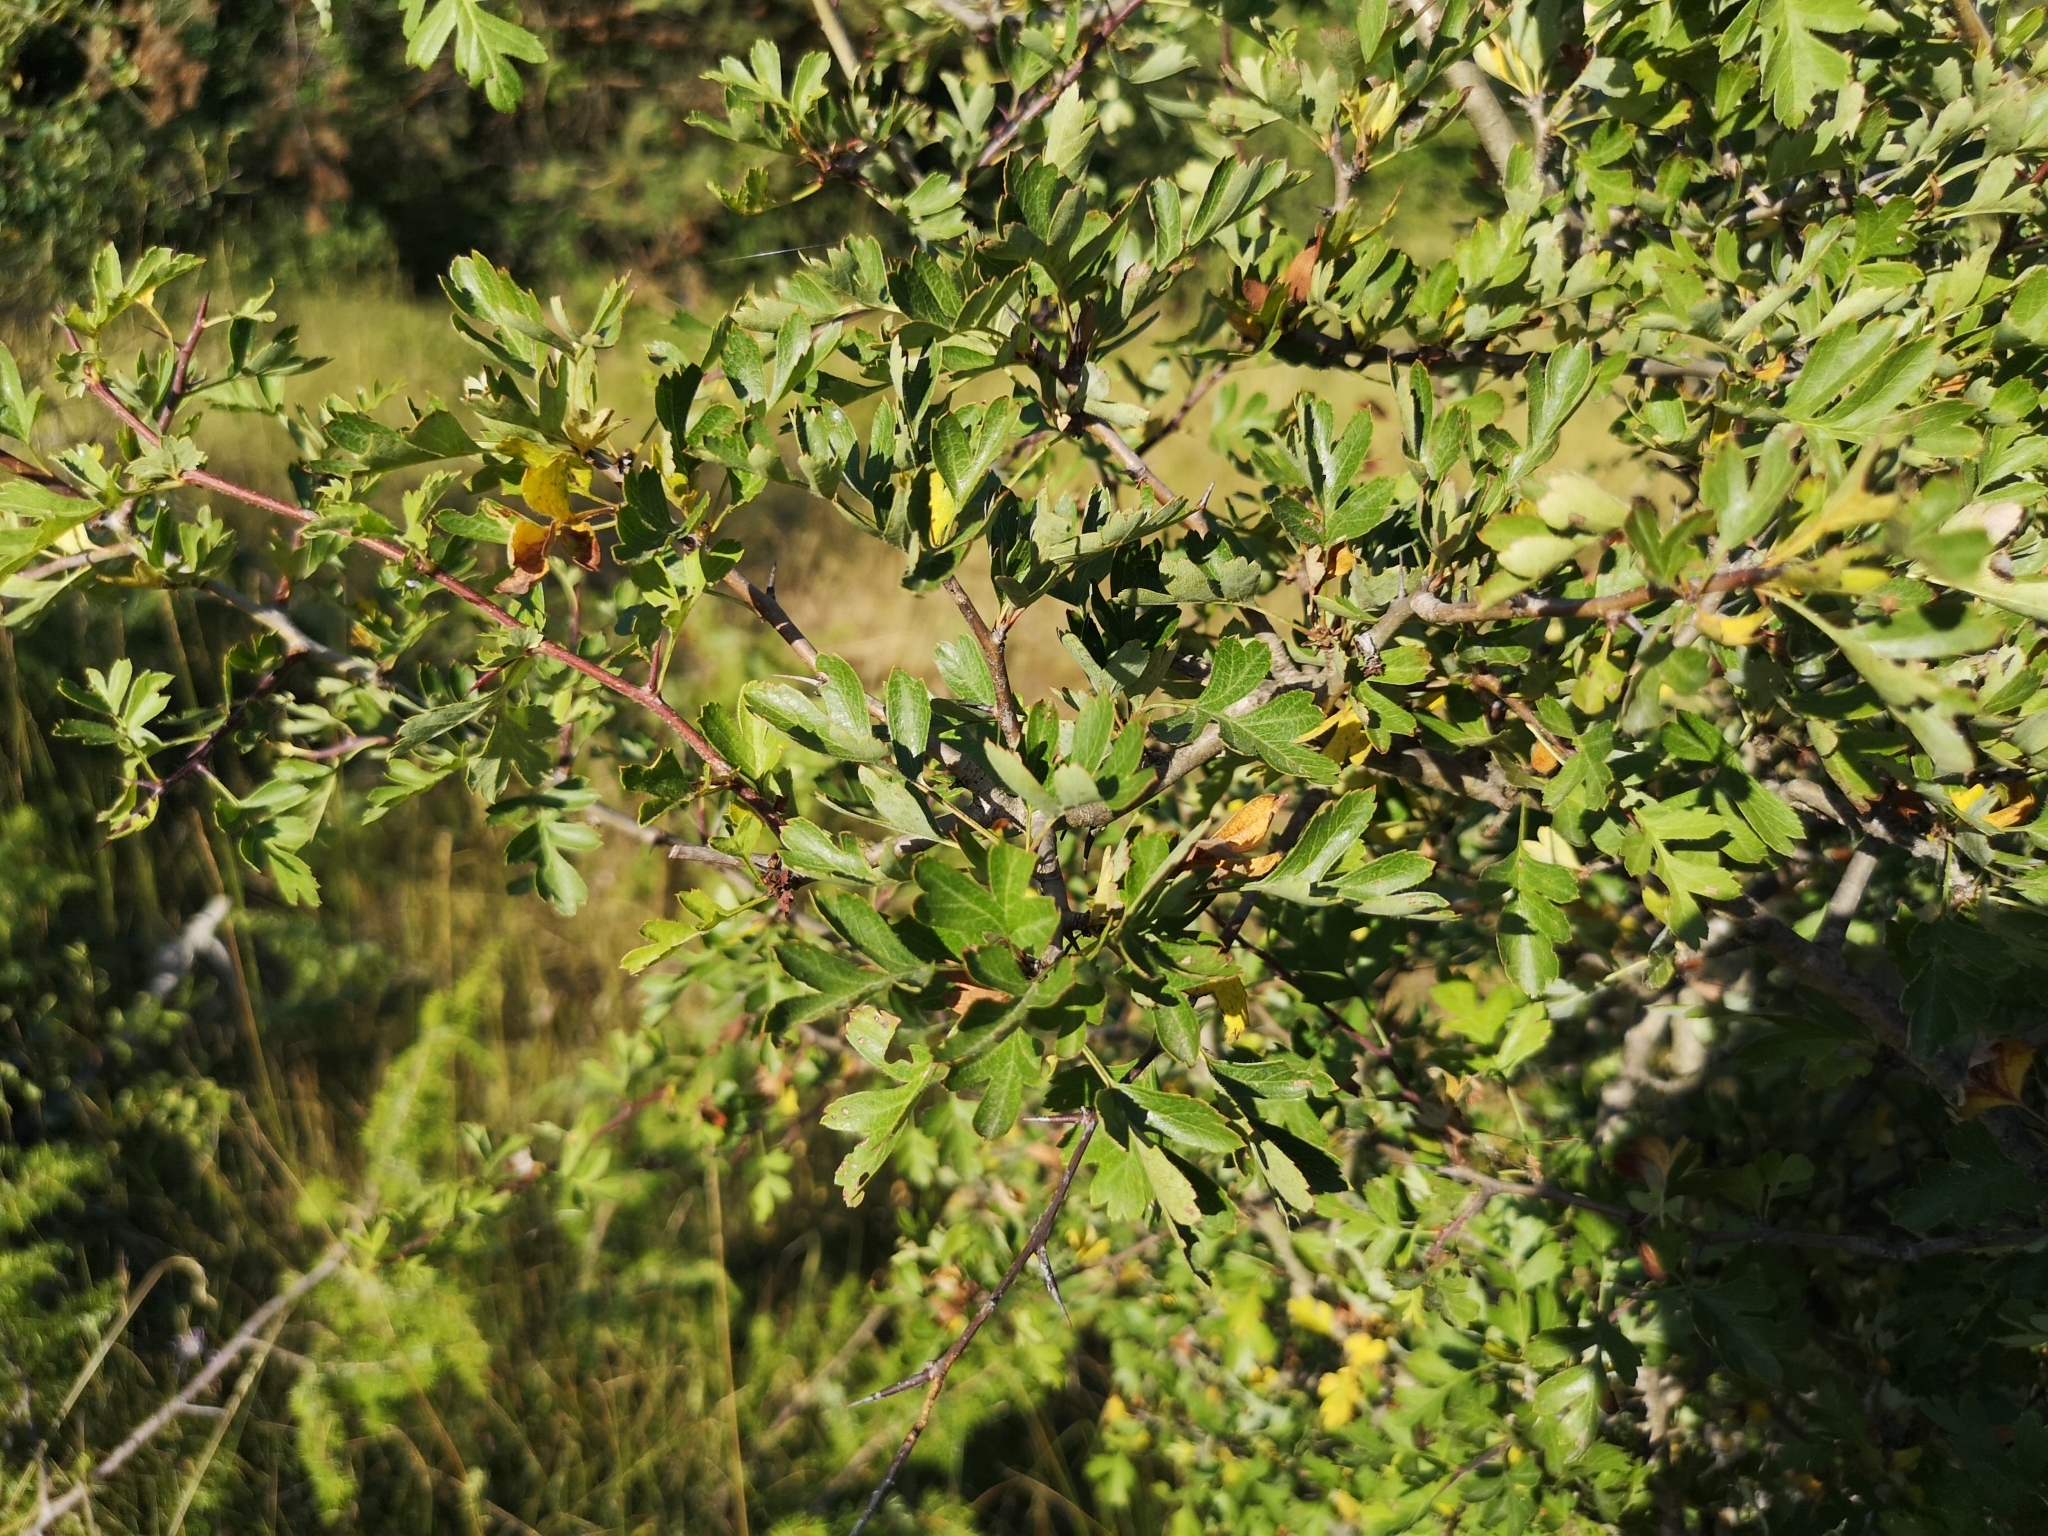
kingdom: Plantae
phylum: Tracheophyta
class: Magnoliopsida
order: Rosales
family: Rosaceae
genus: Crataegus
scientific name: Crataegus monogyna
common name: Hawthorn
